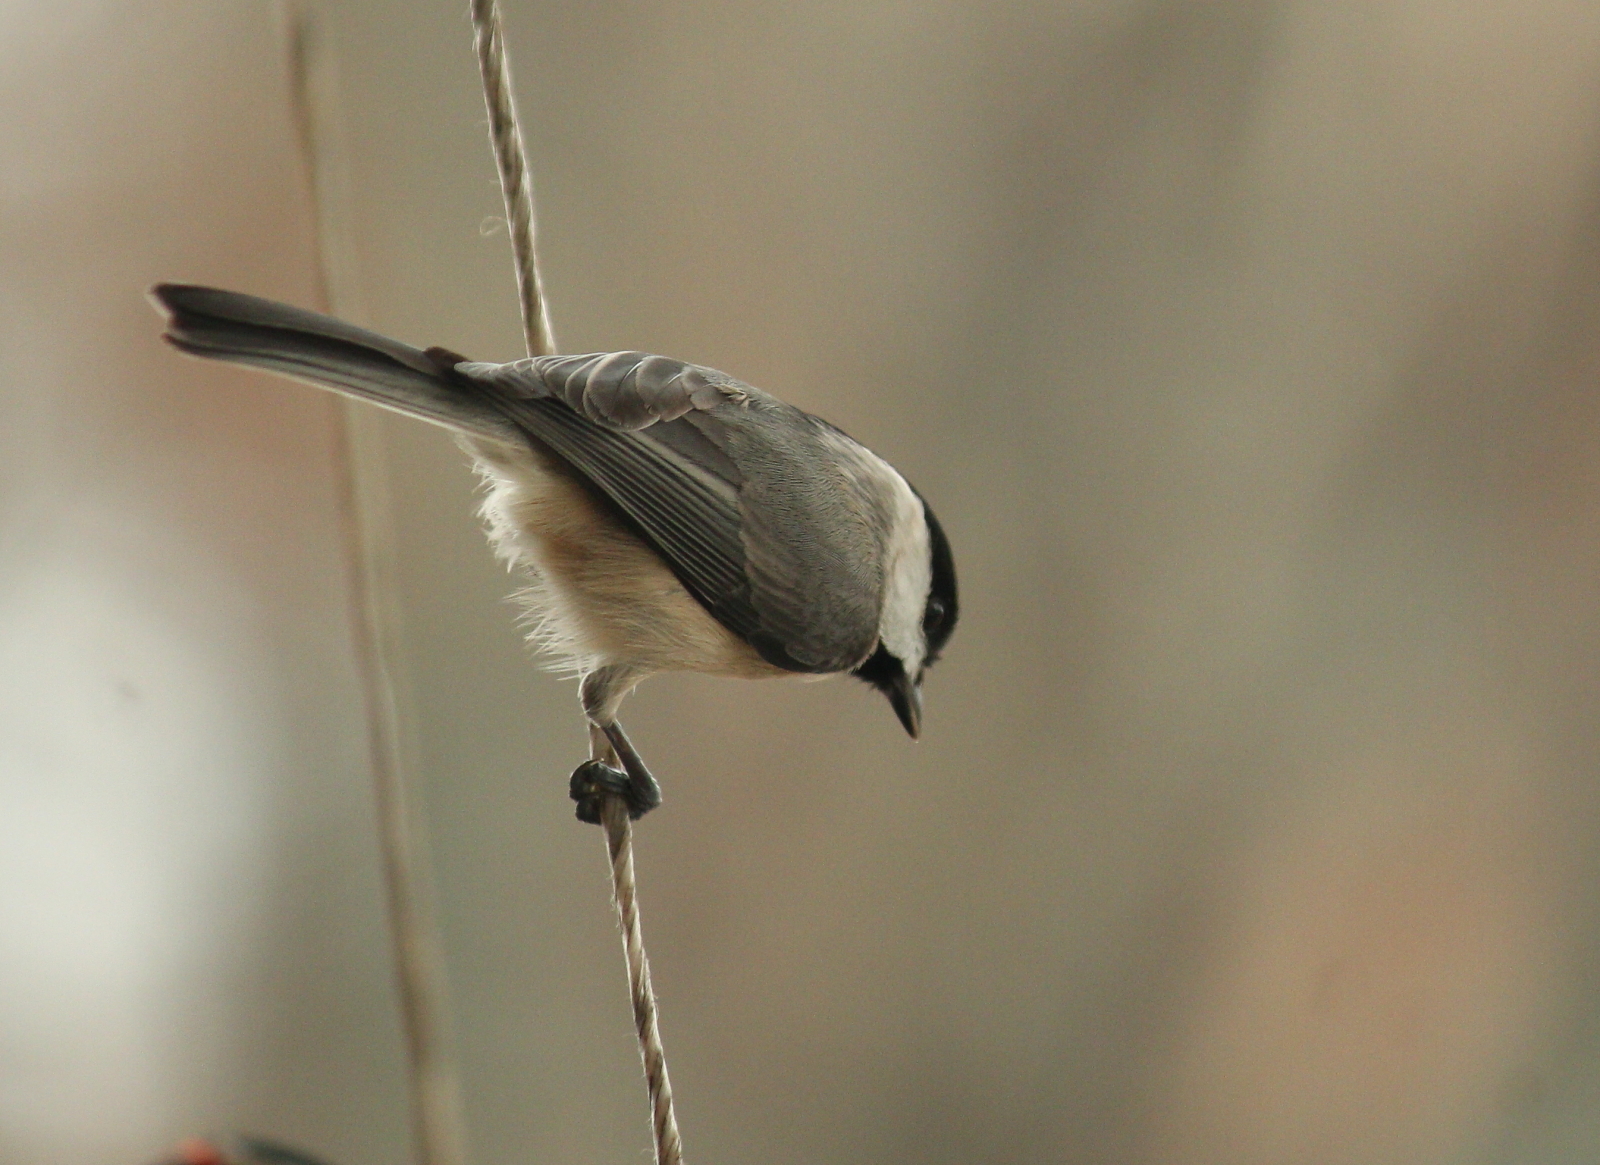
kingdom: Animalia
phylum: Chordata
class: Aves
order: Passeriformes
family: Paridae
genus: Poecile
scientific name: Poecile carolinensis
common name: Carolina chickadee
